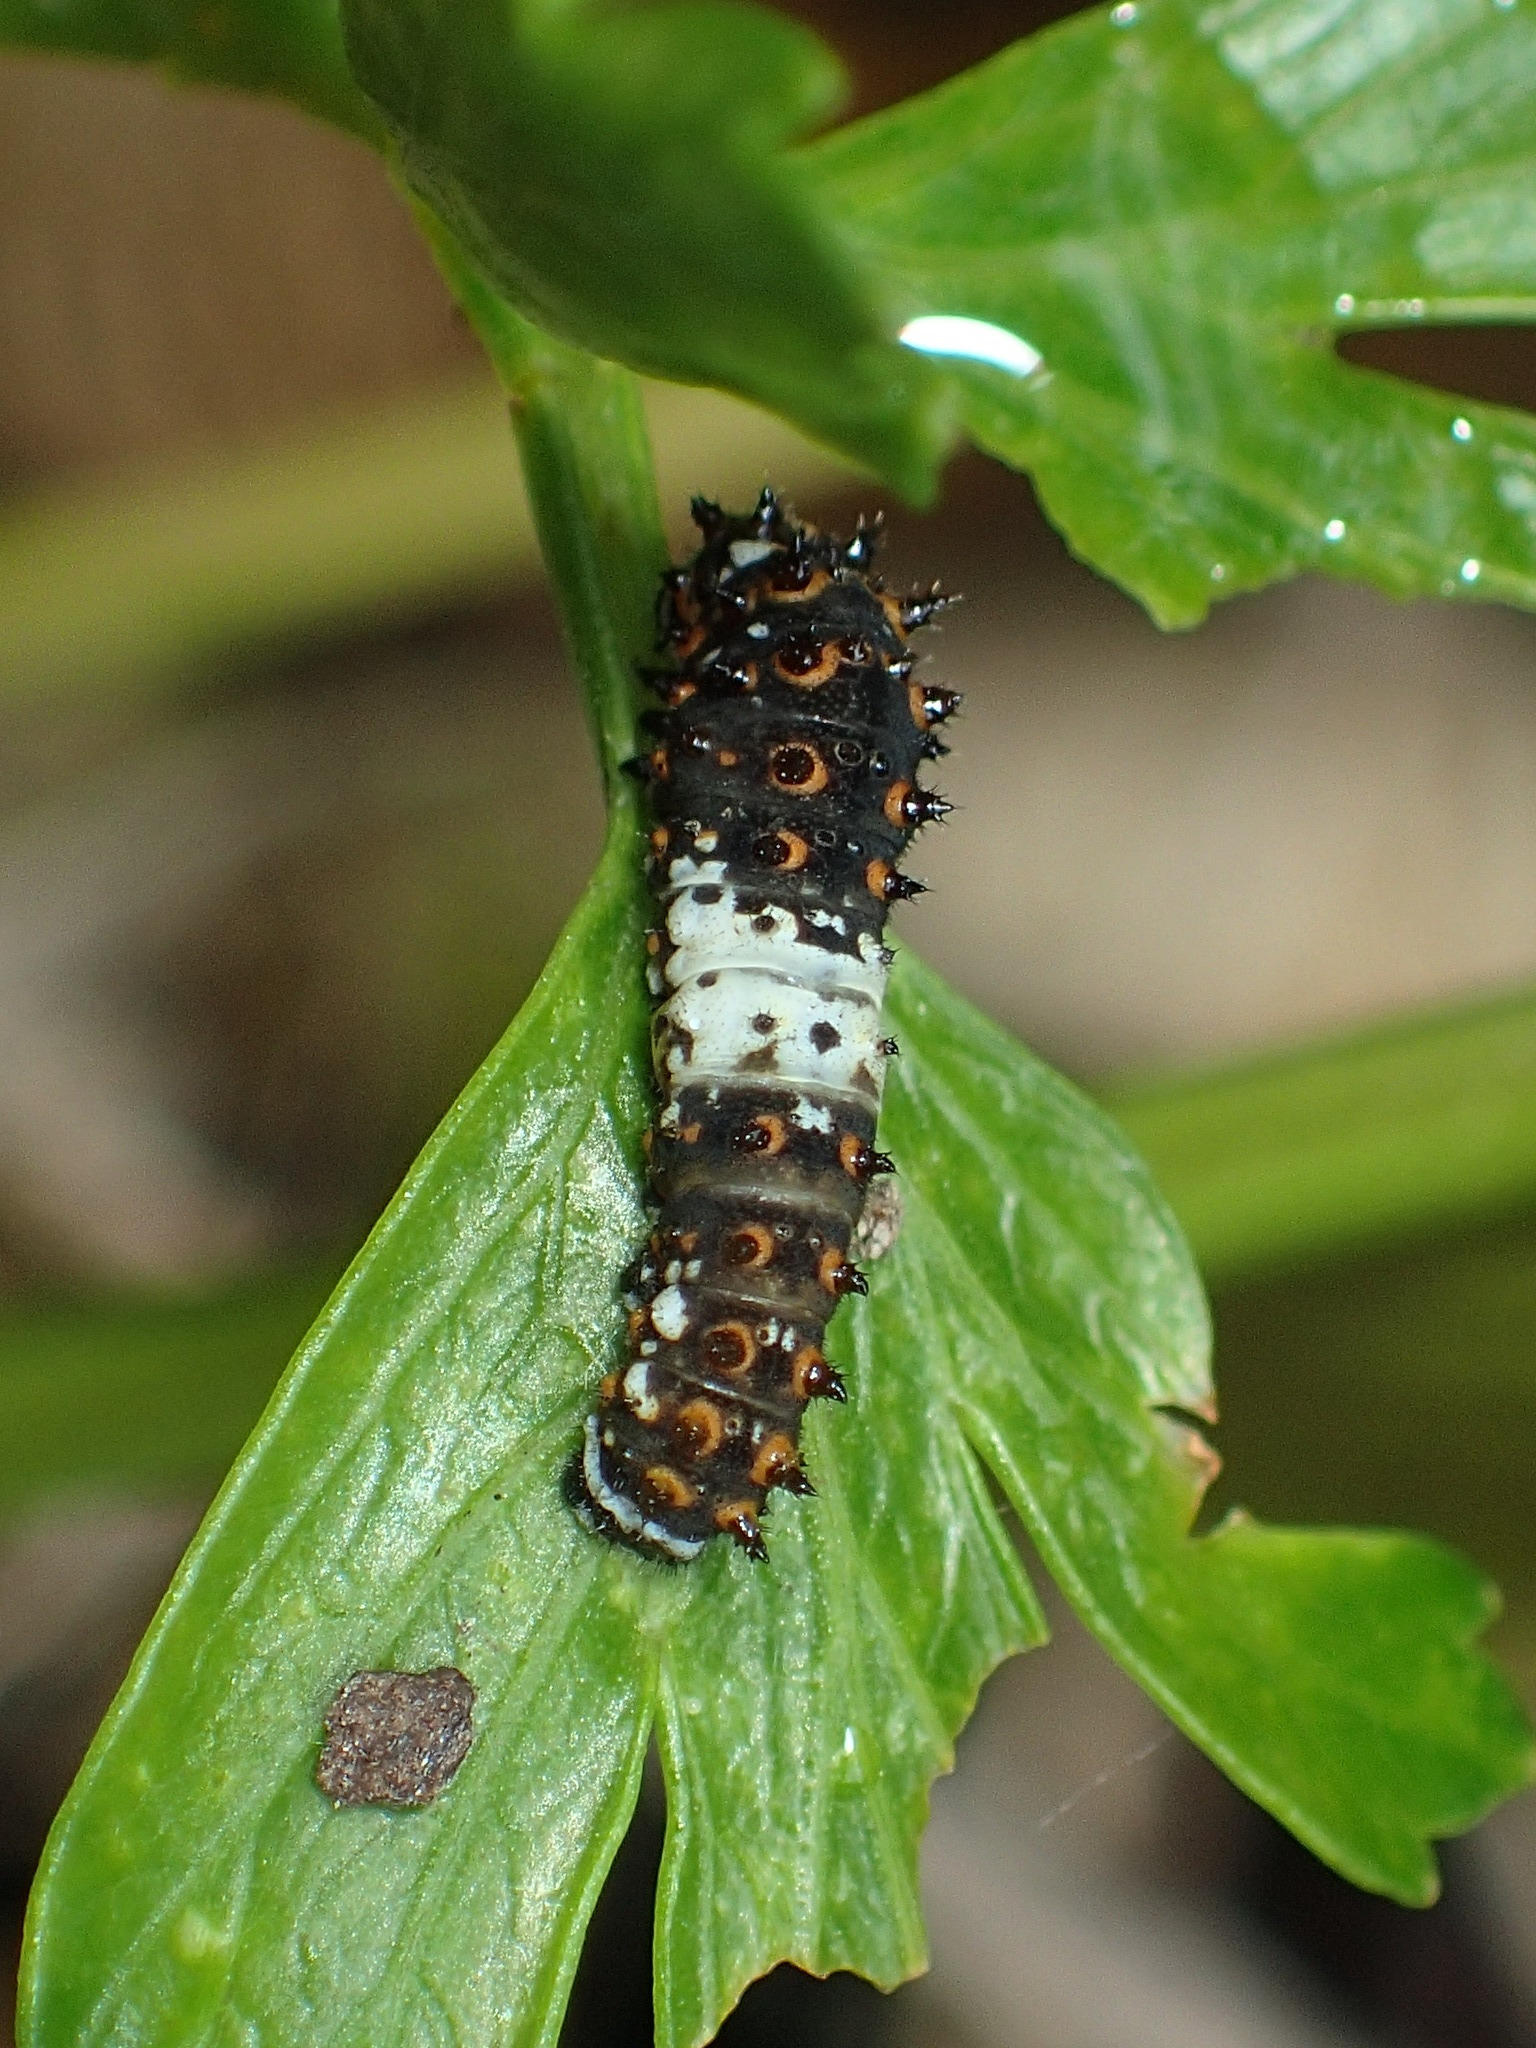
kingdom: Animalia
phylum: Arthropoda
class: Insecta
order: Lepidoptera
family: Papilionidae
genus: Papilio
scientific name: Papilio polyxenes
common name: Black swallowtail
